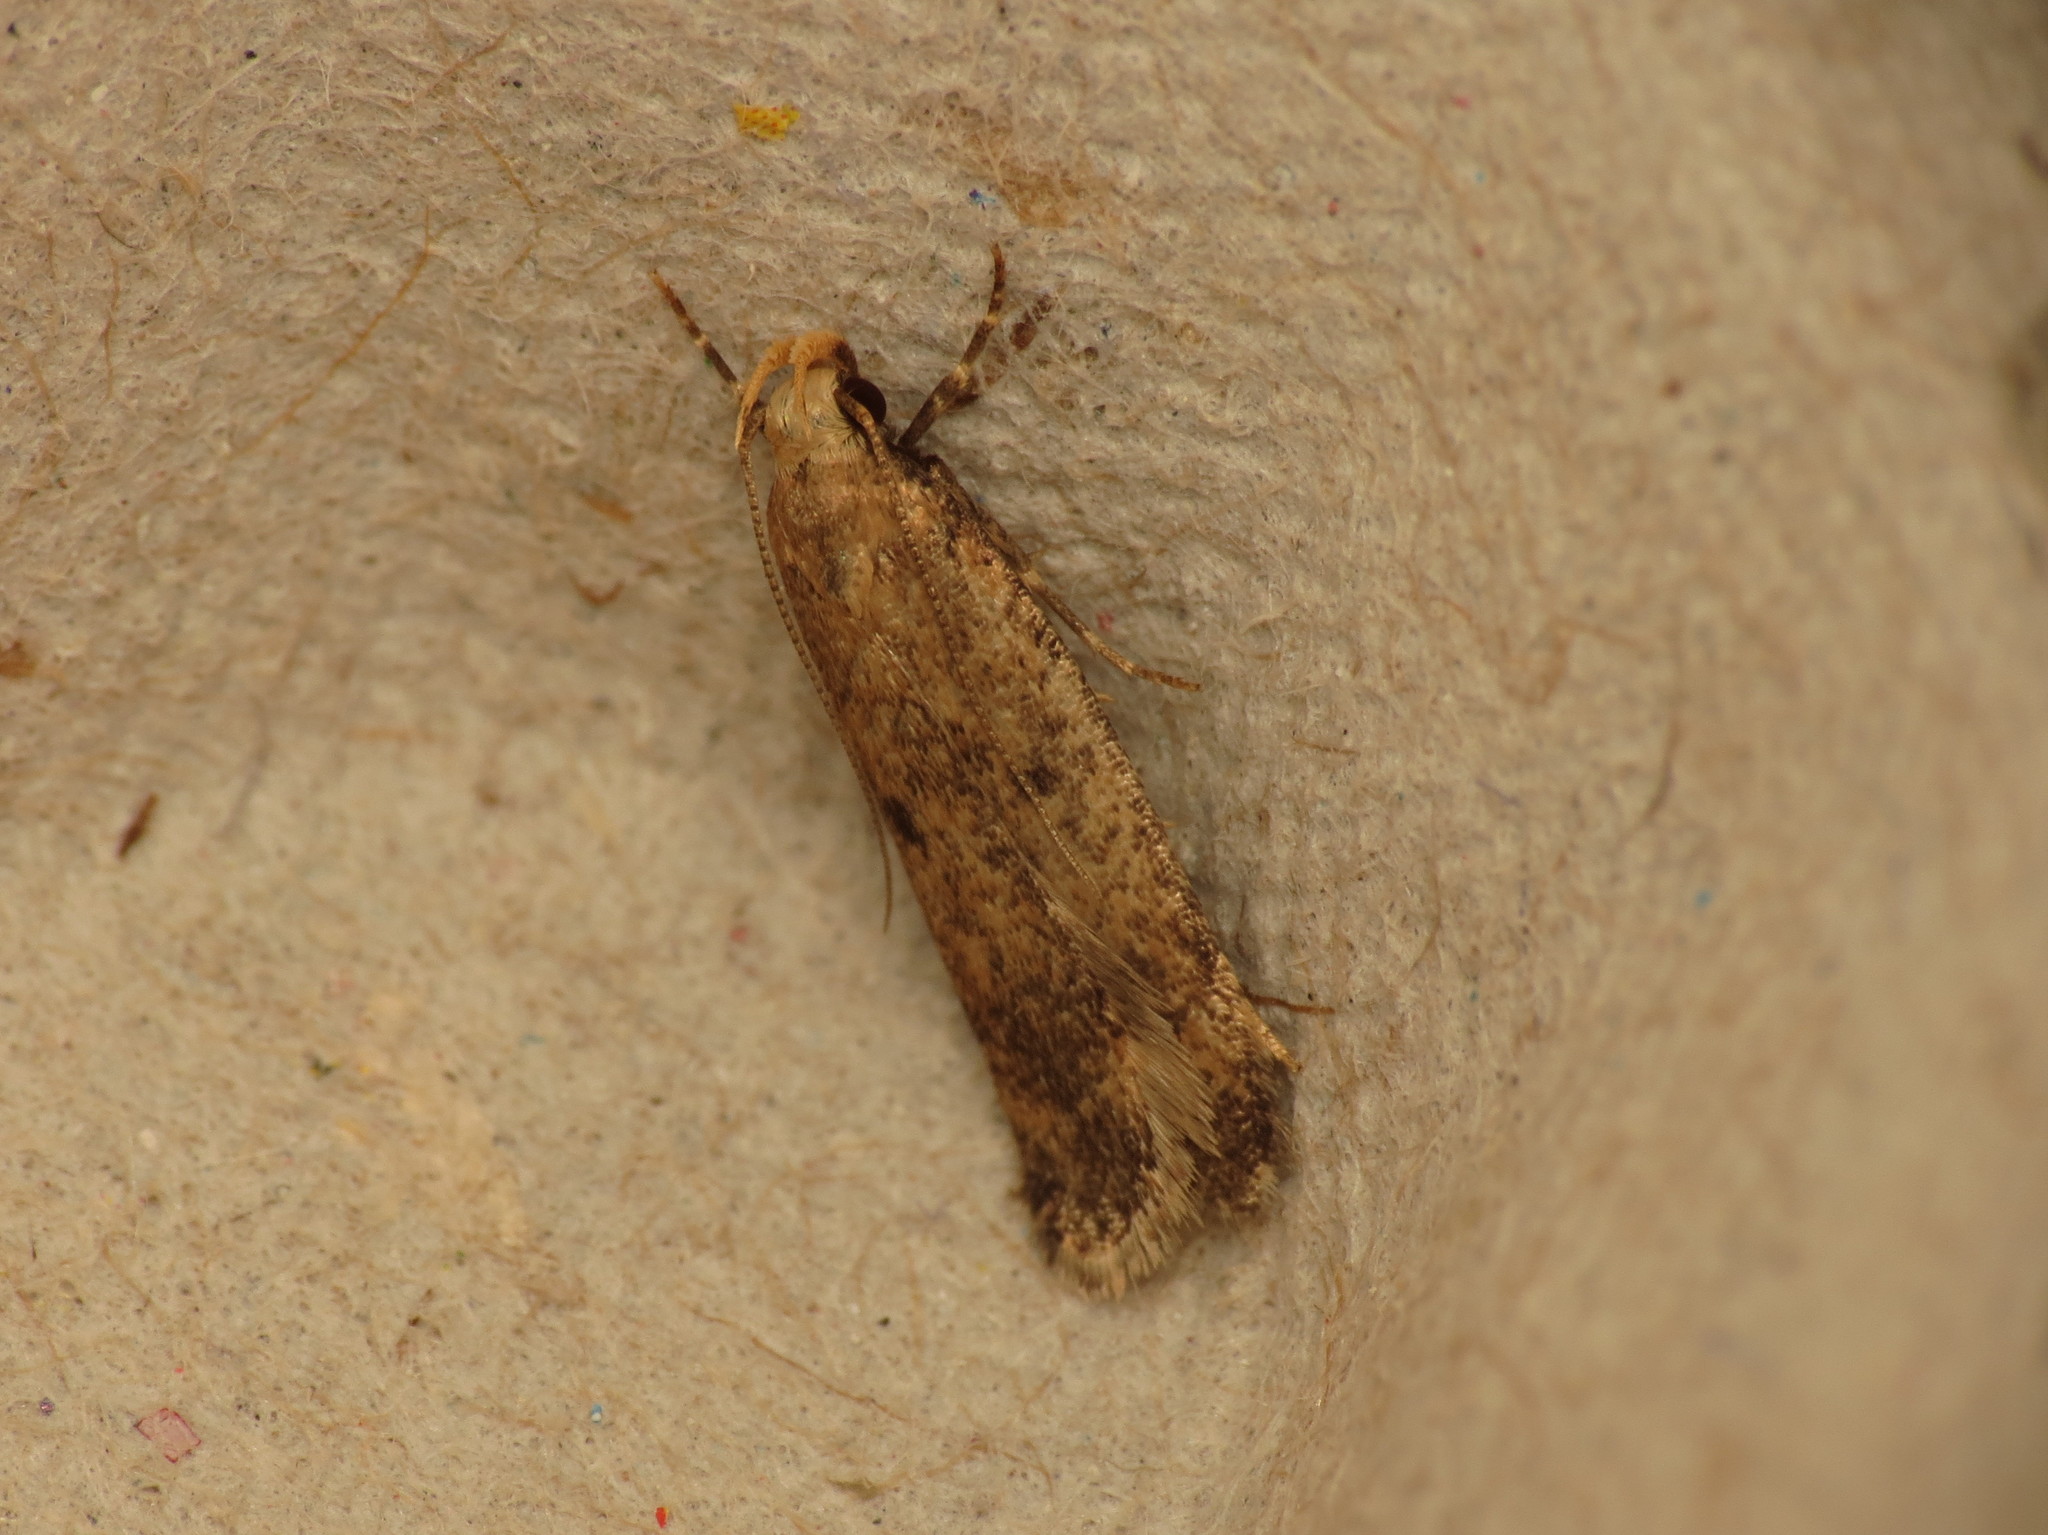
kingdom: Animalia
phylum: Arthropoda
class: Insecta
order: Lepidoptera
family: Gelechiidae
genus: Pexicopia
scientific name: Pexicopia malvella
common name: Hollyhock seed moth
